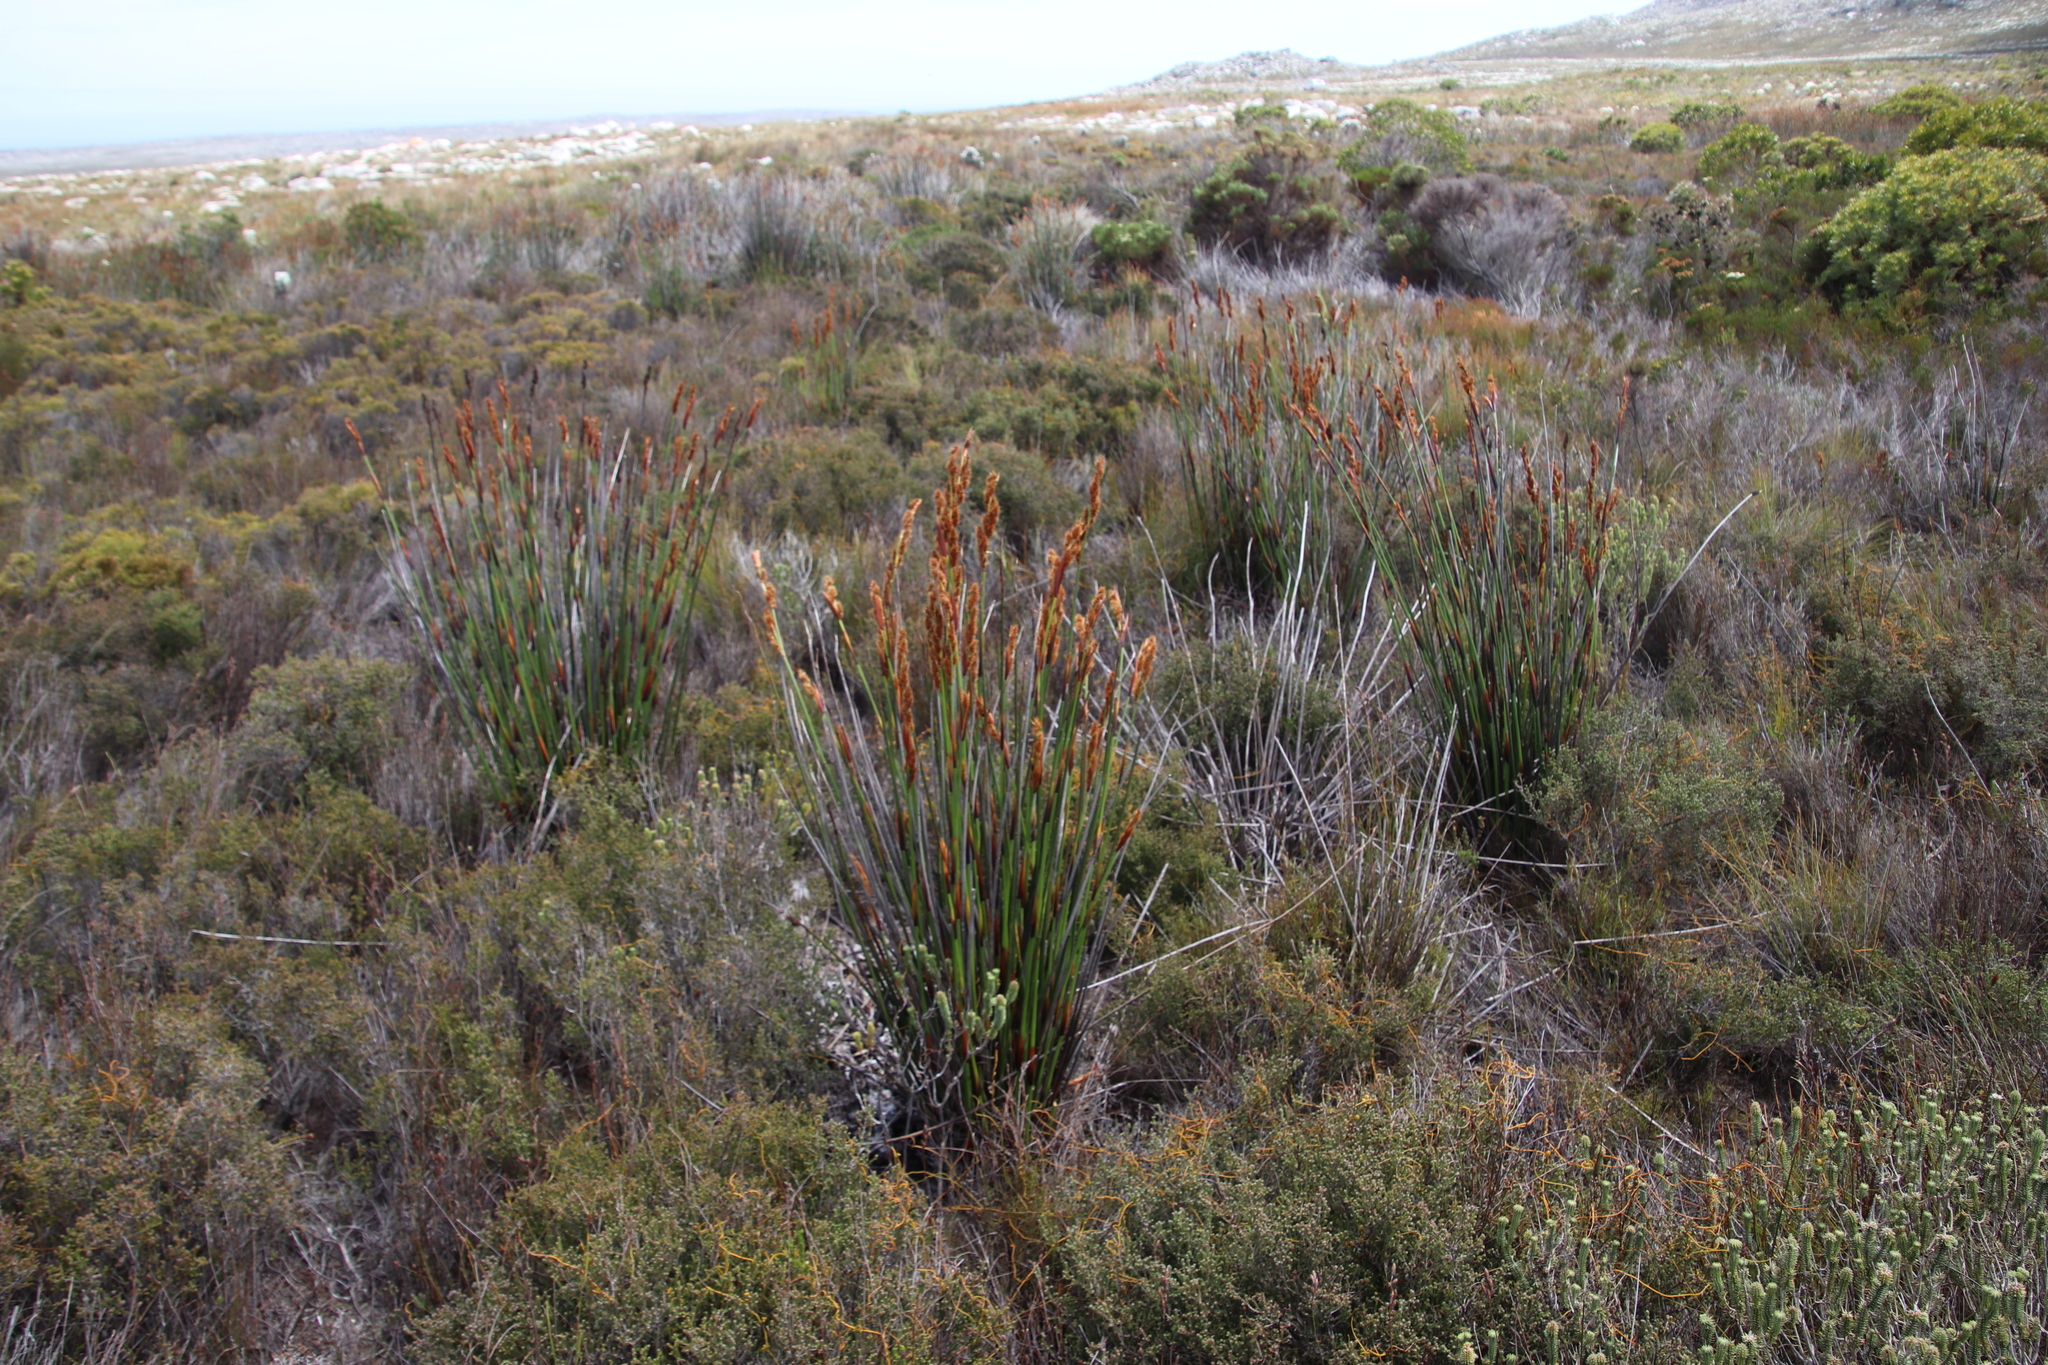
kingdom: Plantae
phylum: Tracheophyta
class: Liliopsida
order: Poales
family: Restionaceae
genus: Elegia
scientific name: Elegia cuspidata
